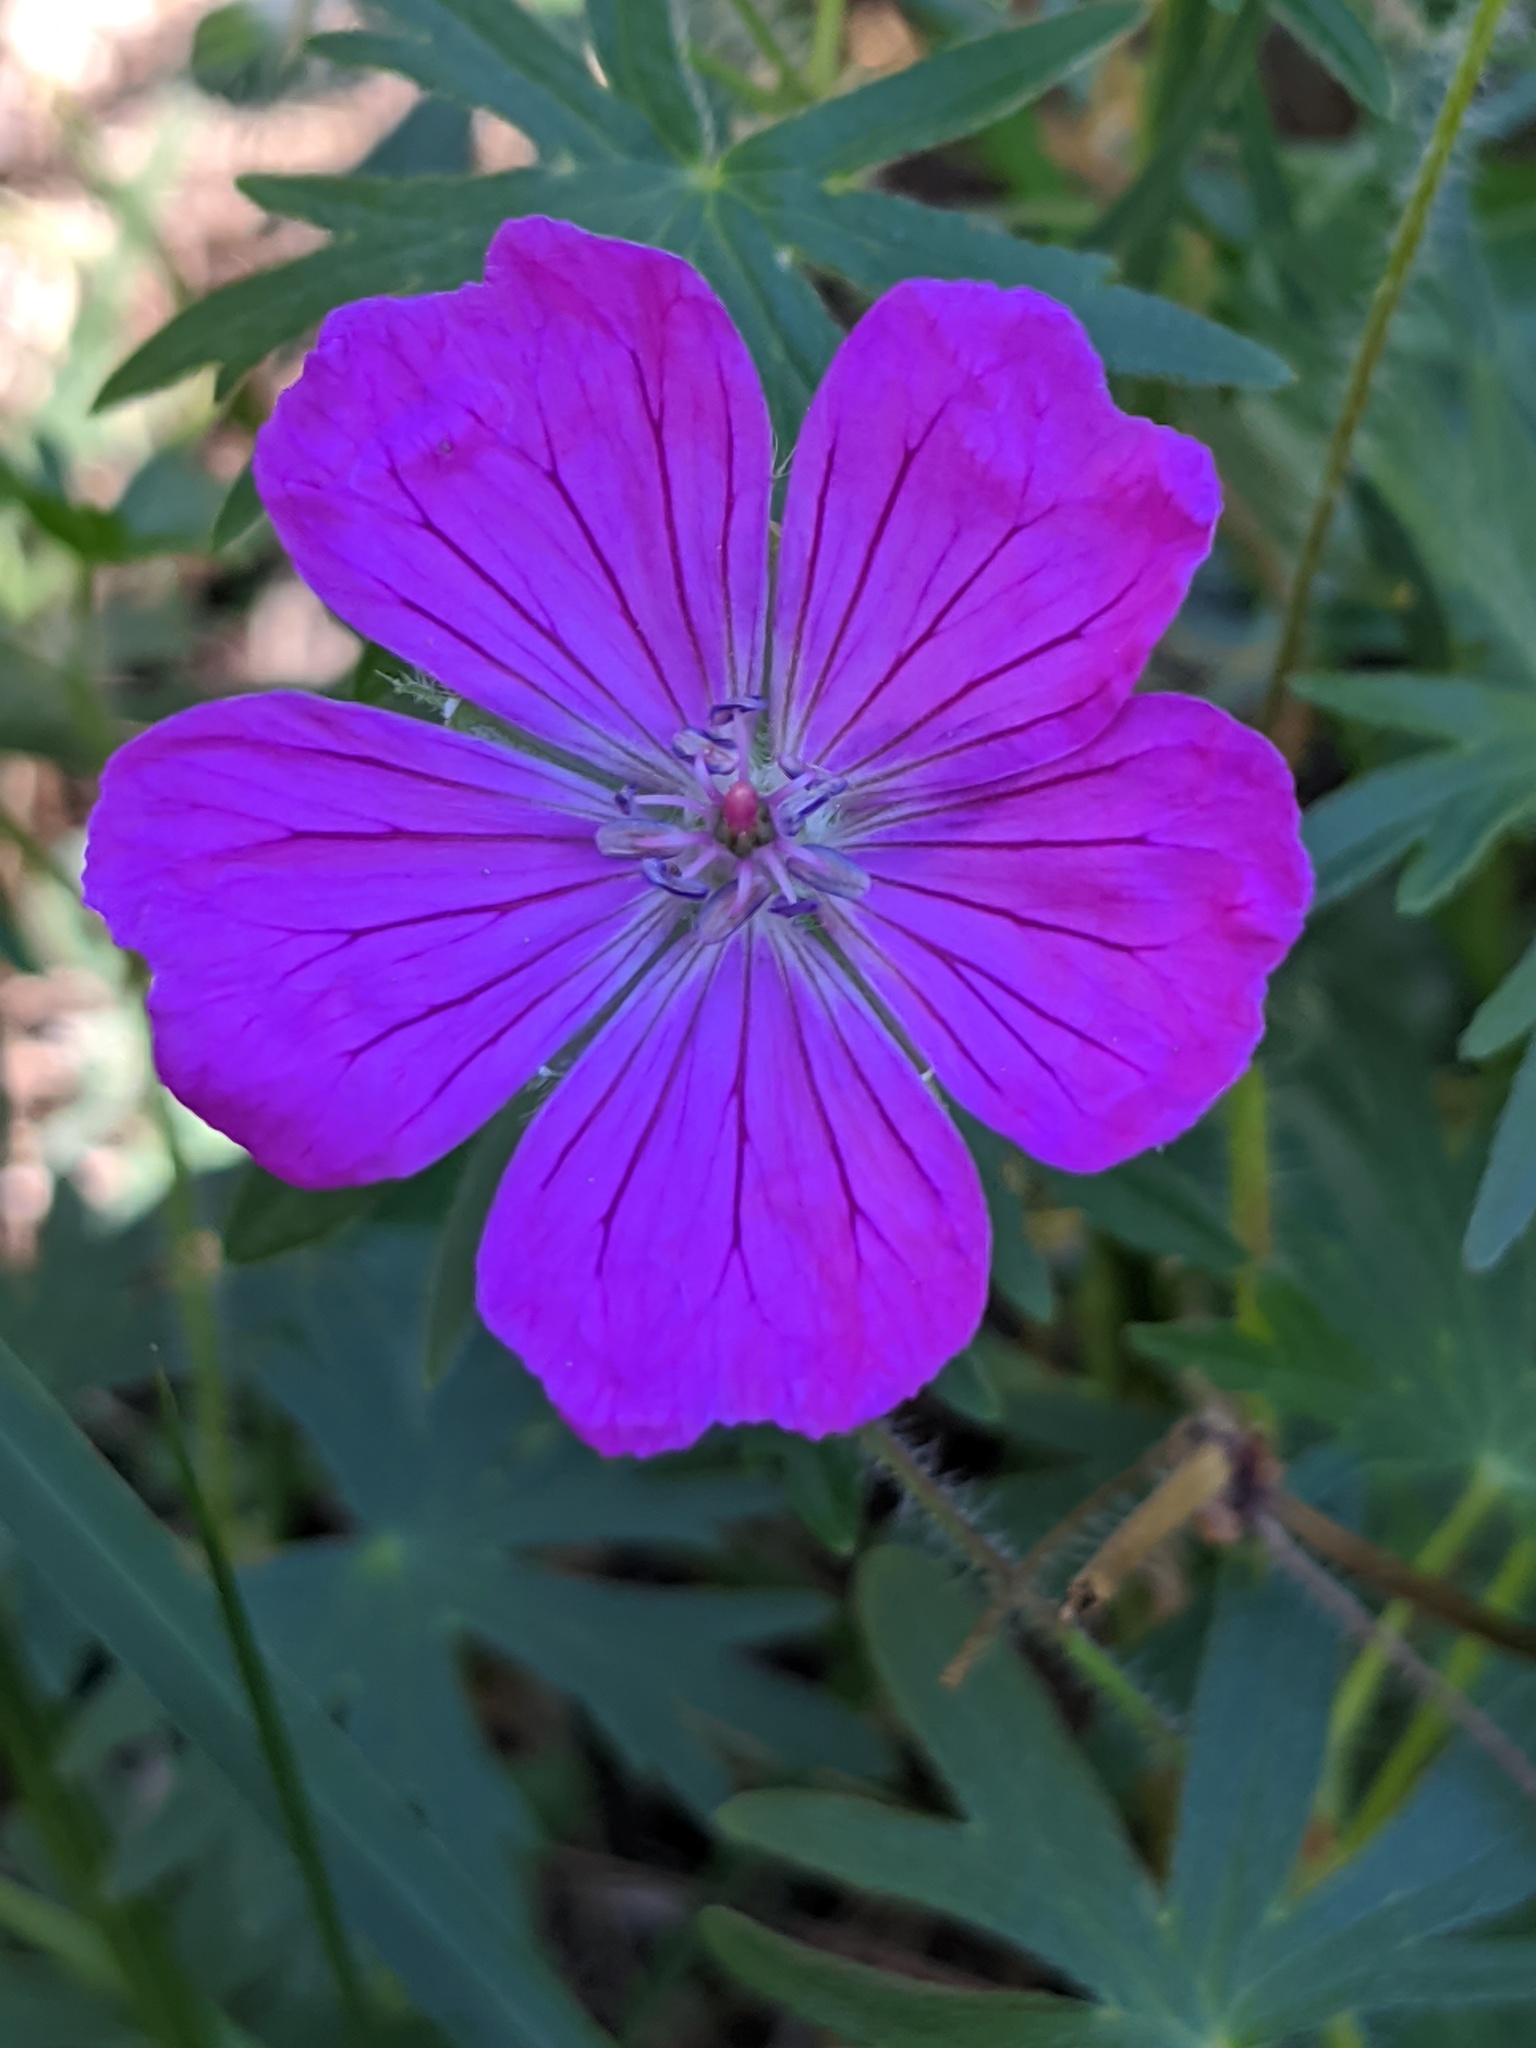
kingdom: Plantae
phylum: Tracheophyta
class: Magnoliopsida
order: Geraniales
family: Geraniaceae
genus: Geranium
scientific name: Geranium sanguineum
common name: Bloody crane's-bill
